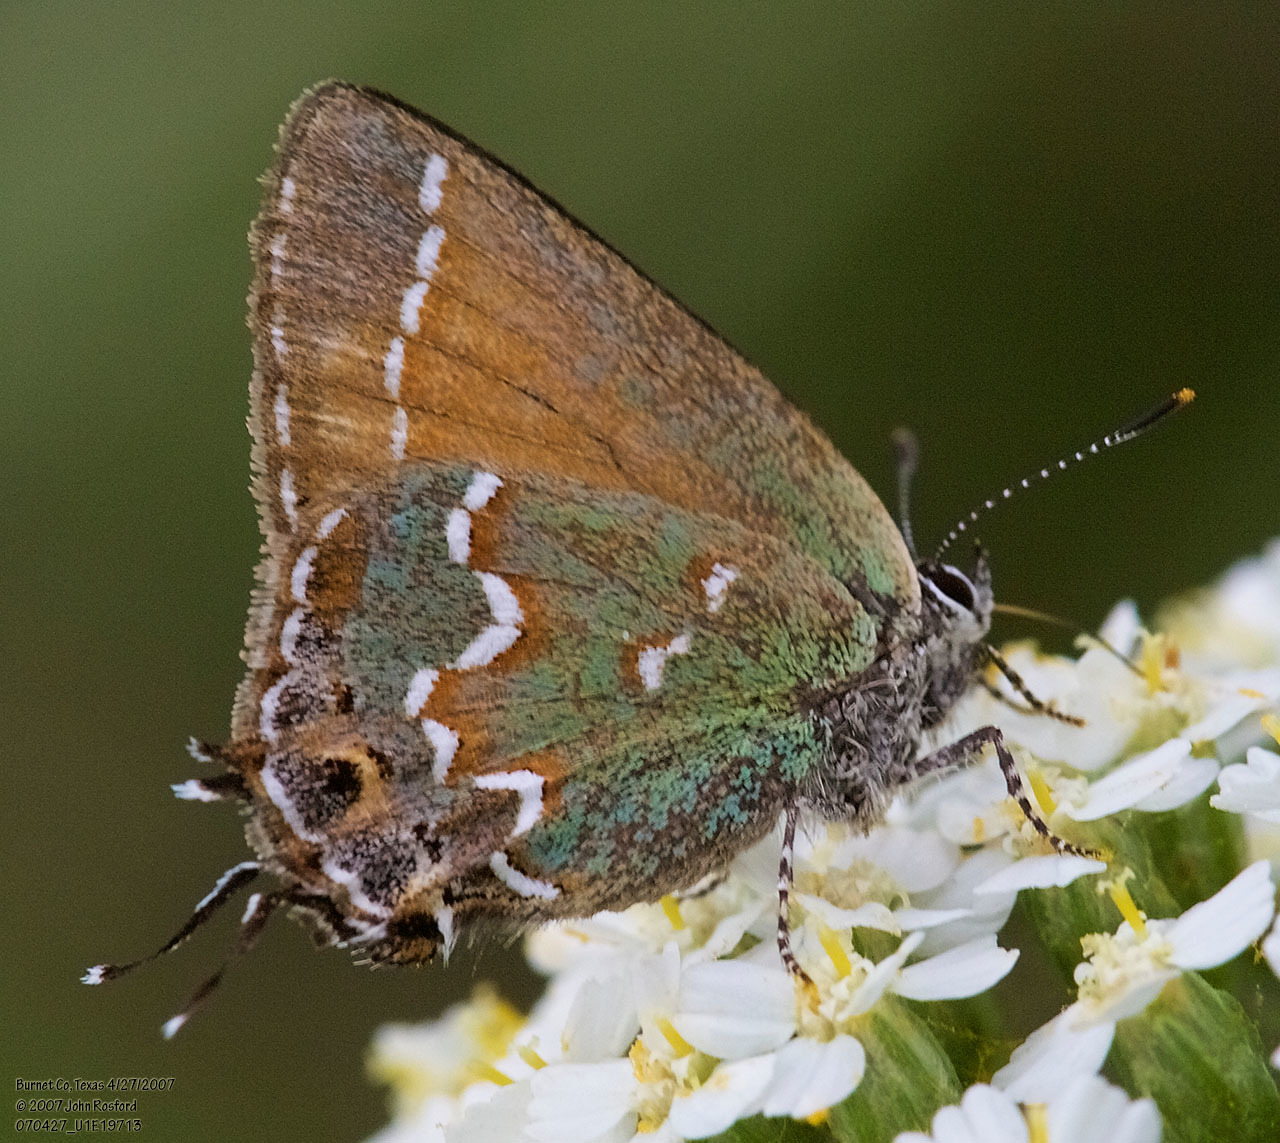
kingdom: Animalia
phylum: Arthropoda
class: Insecta
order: Lepidoptera
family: Lycaenidae
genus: Mitoura
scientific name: Mitoura gryneus
